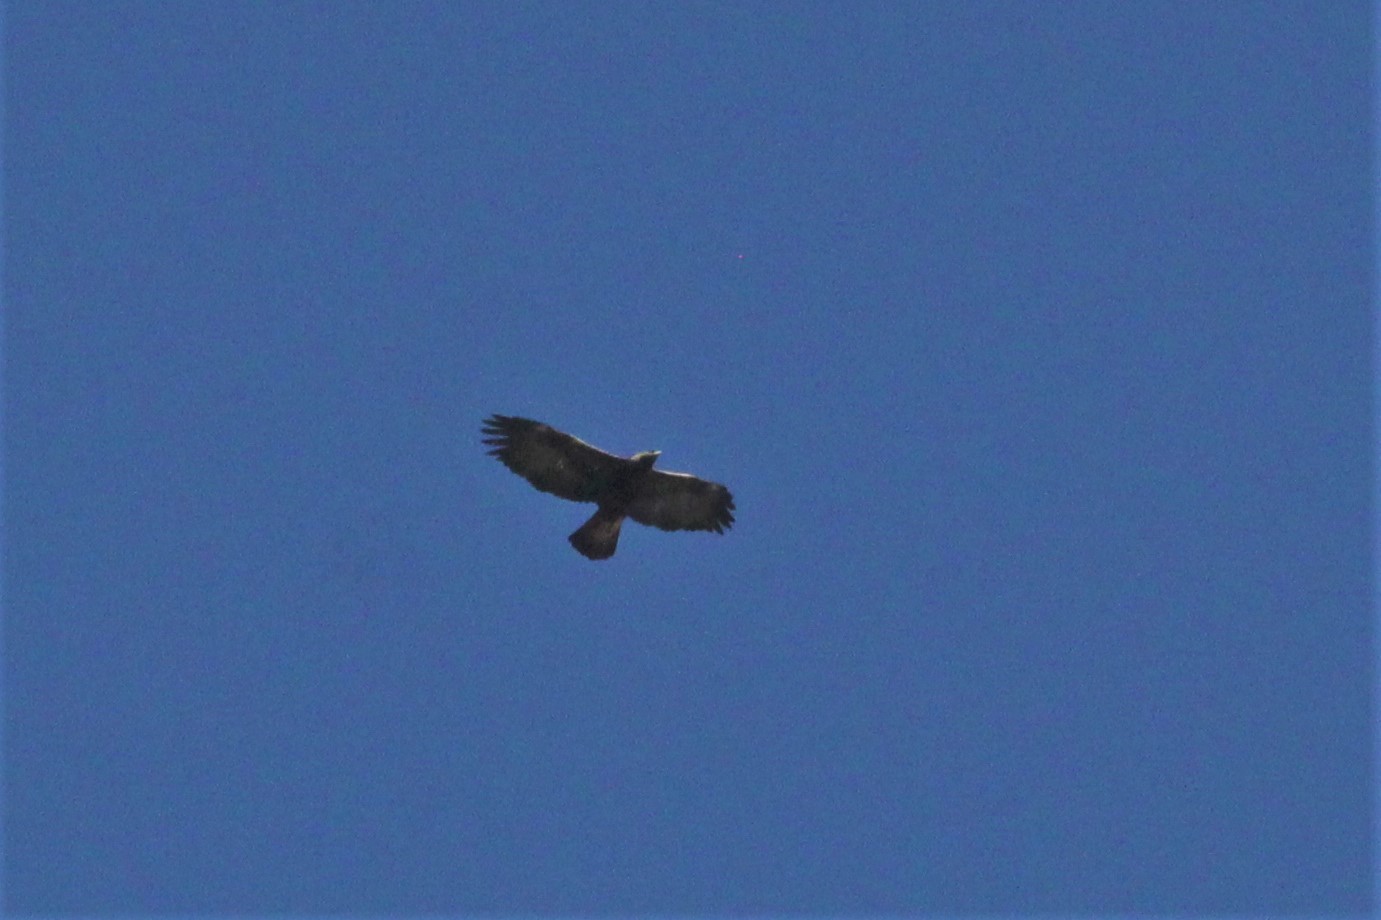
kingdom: Animalia
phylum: Chordata
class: Aves
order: Accipitriformes
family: Accipitridae
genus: Aquila
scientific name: Aquila chrysaetos
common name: Golden eagle
